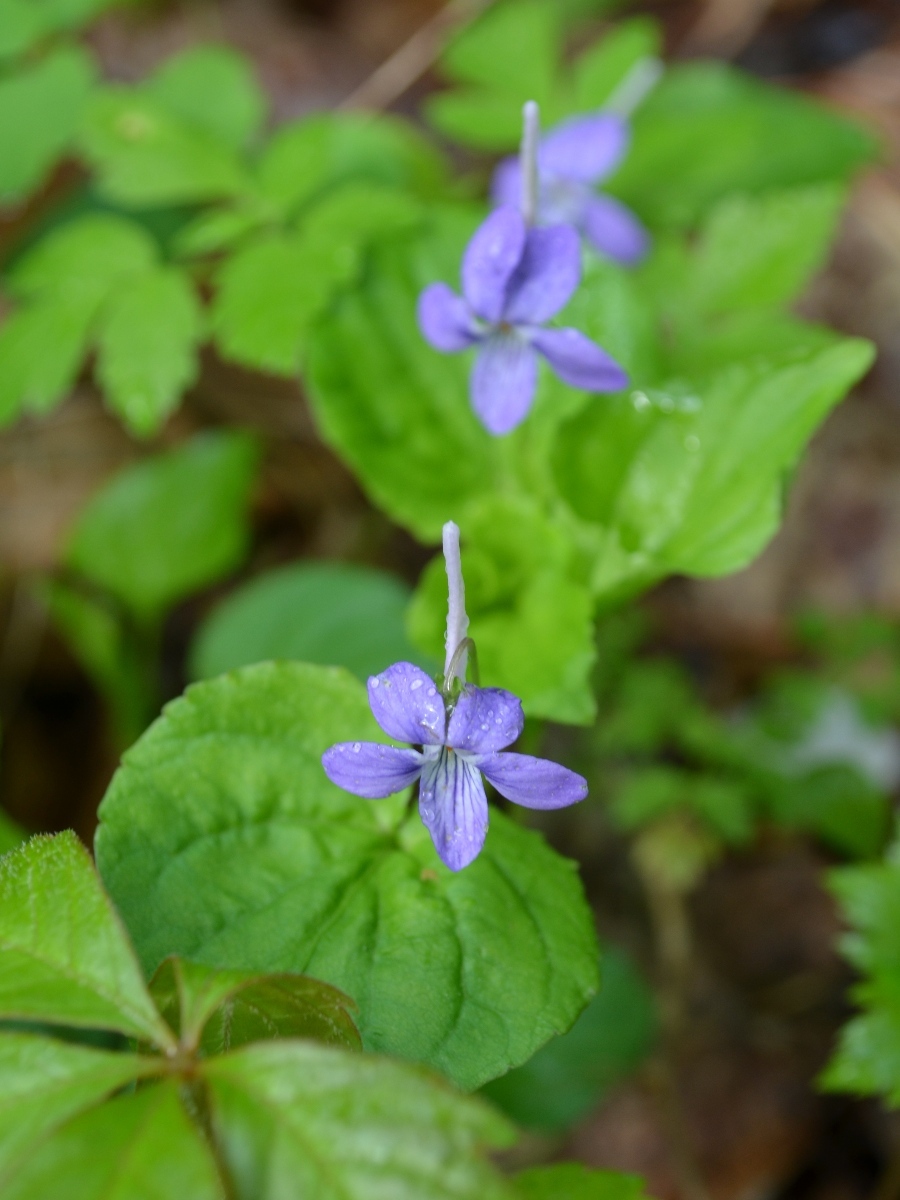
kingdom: Plantae
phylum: Tracheophyta
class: Magnoliopsida
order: Malpighiales
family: Violaceae
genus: Viola
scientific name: Viola rostrata
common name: Long-spur violet
